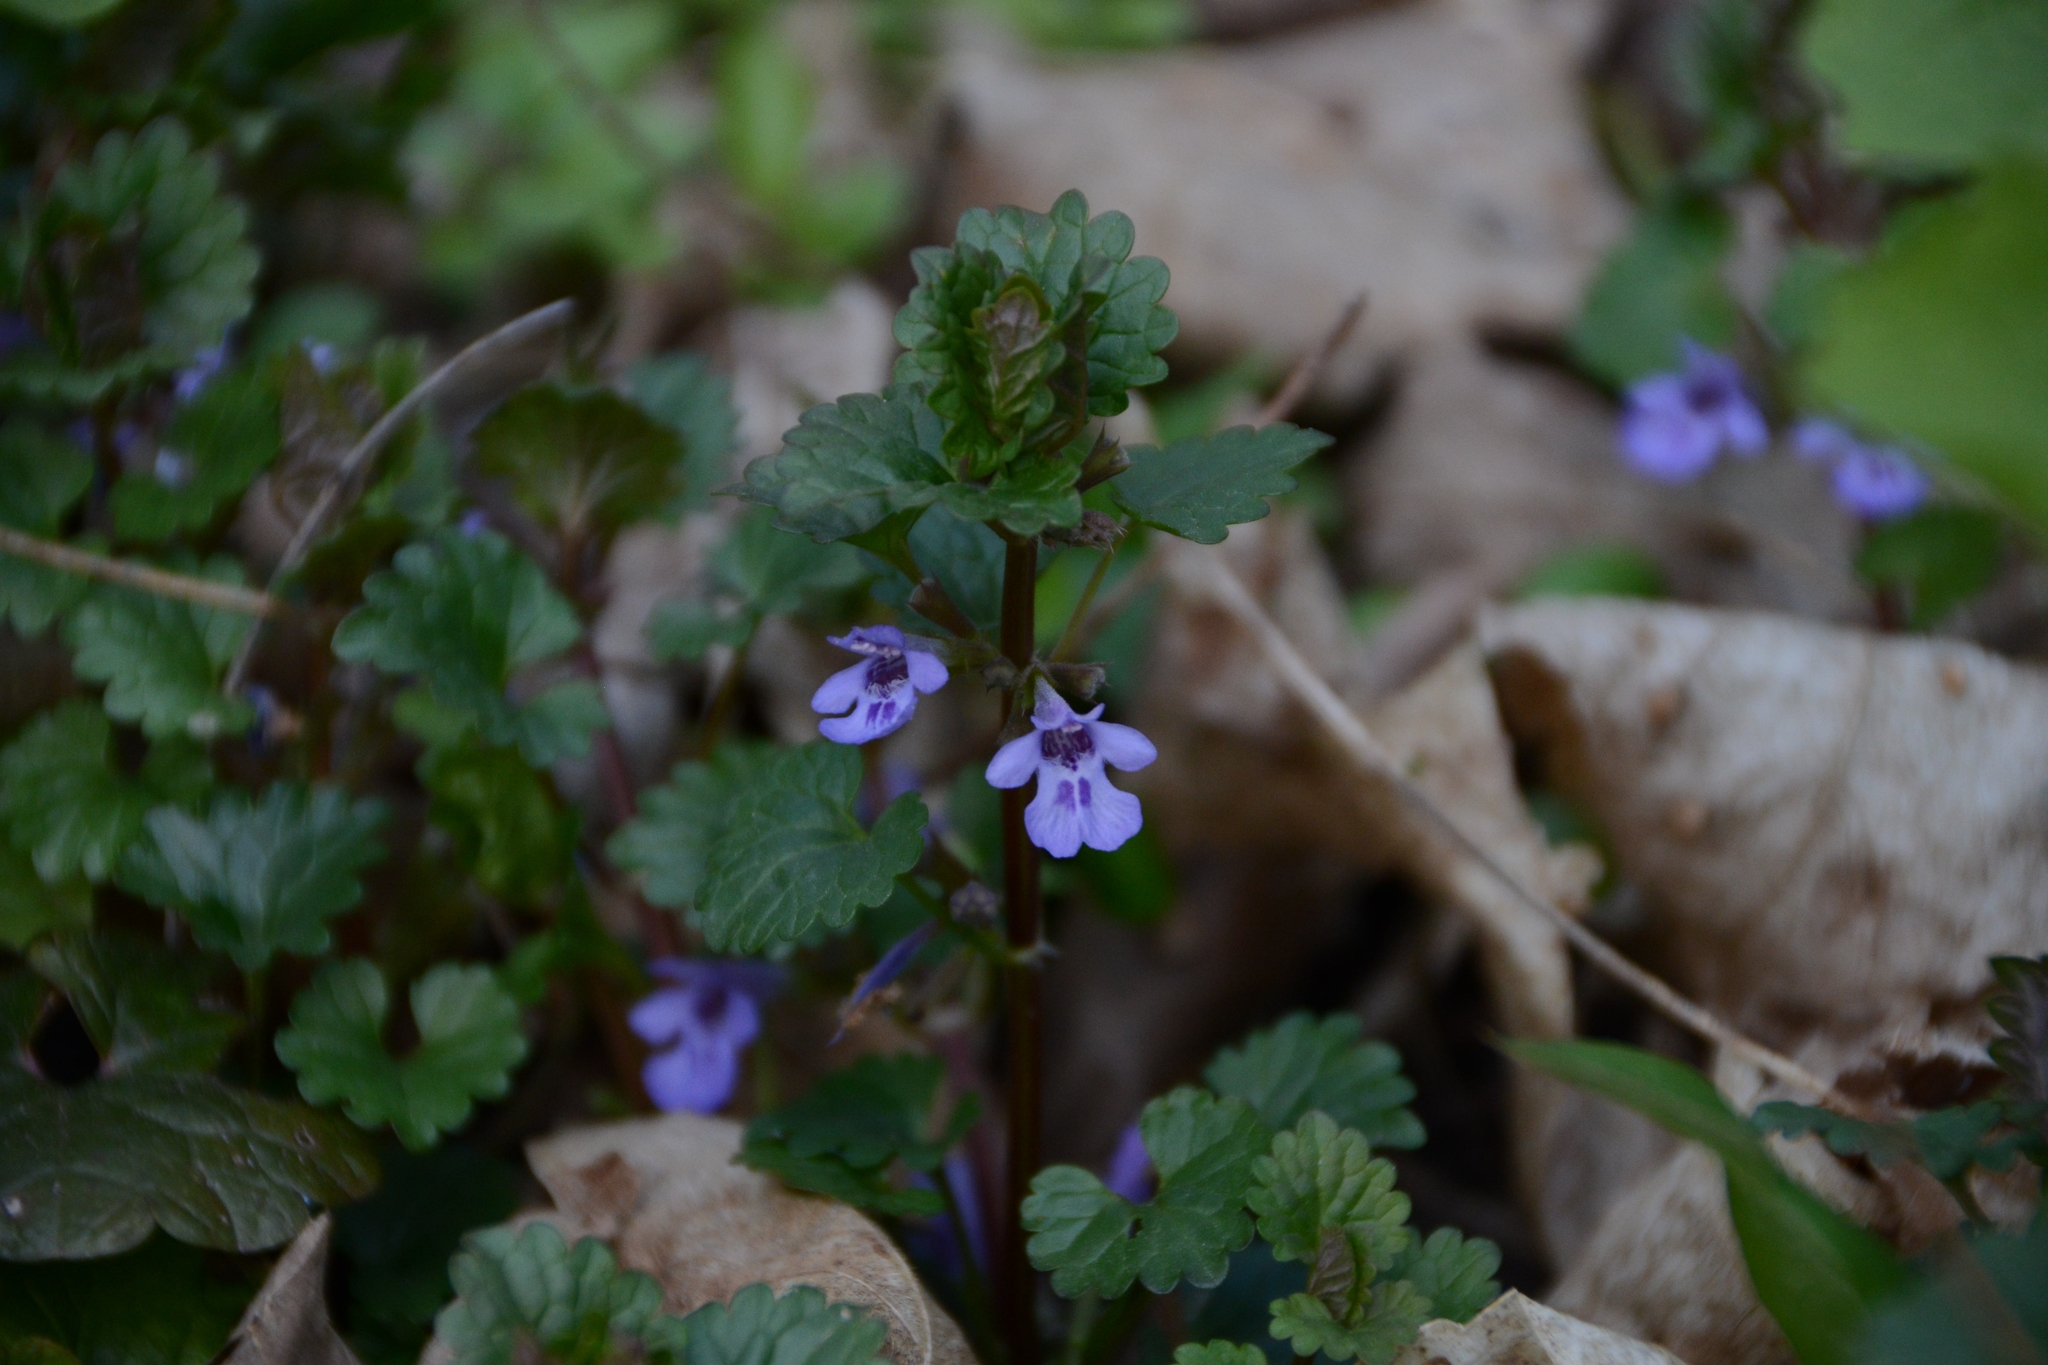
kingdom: Plantae
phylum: Tracheophyta
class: Magnoliopsida
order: Lamiales
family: Lamiaceae
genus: Glechoma
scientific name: Glechoma hederacea
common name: Ground ivy
